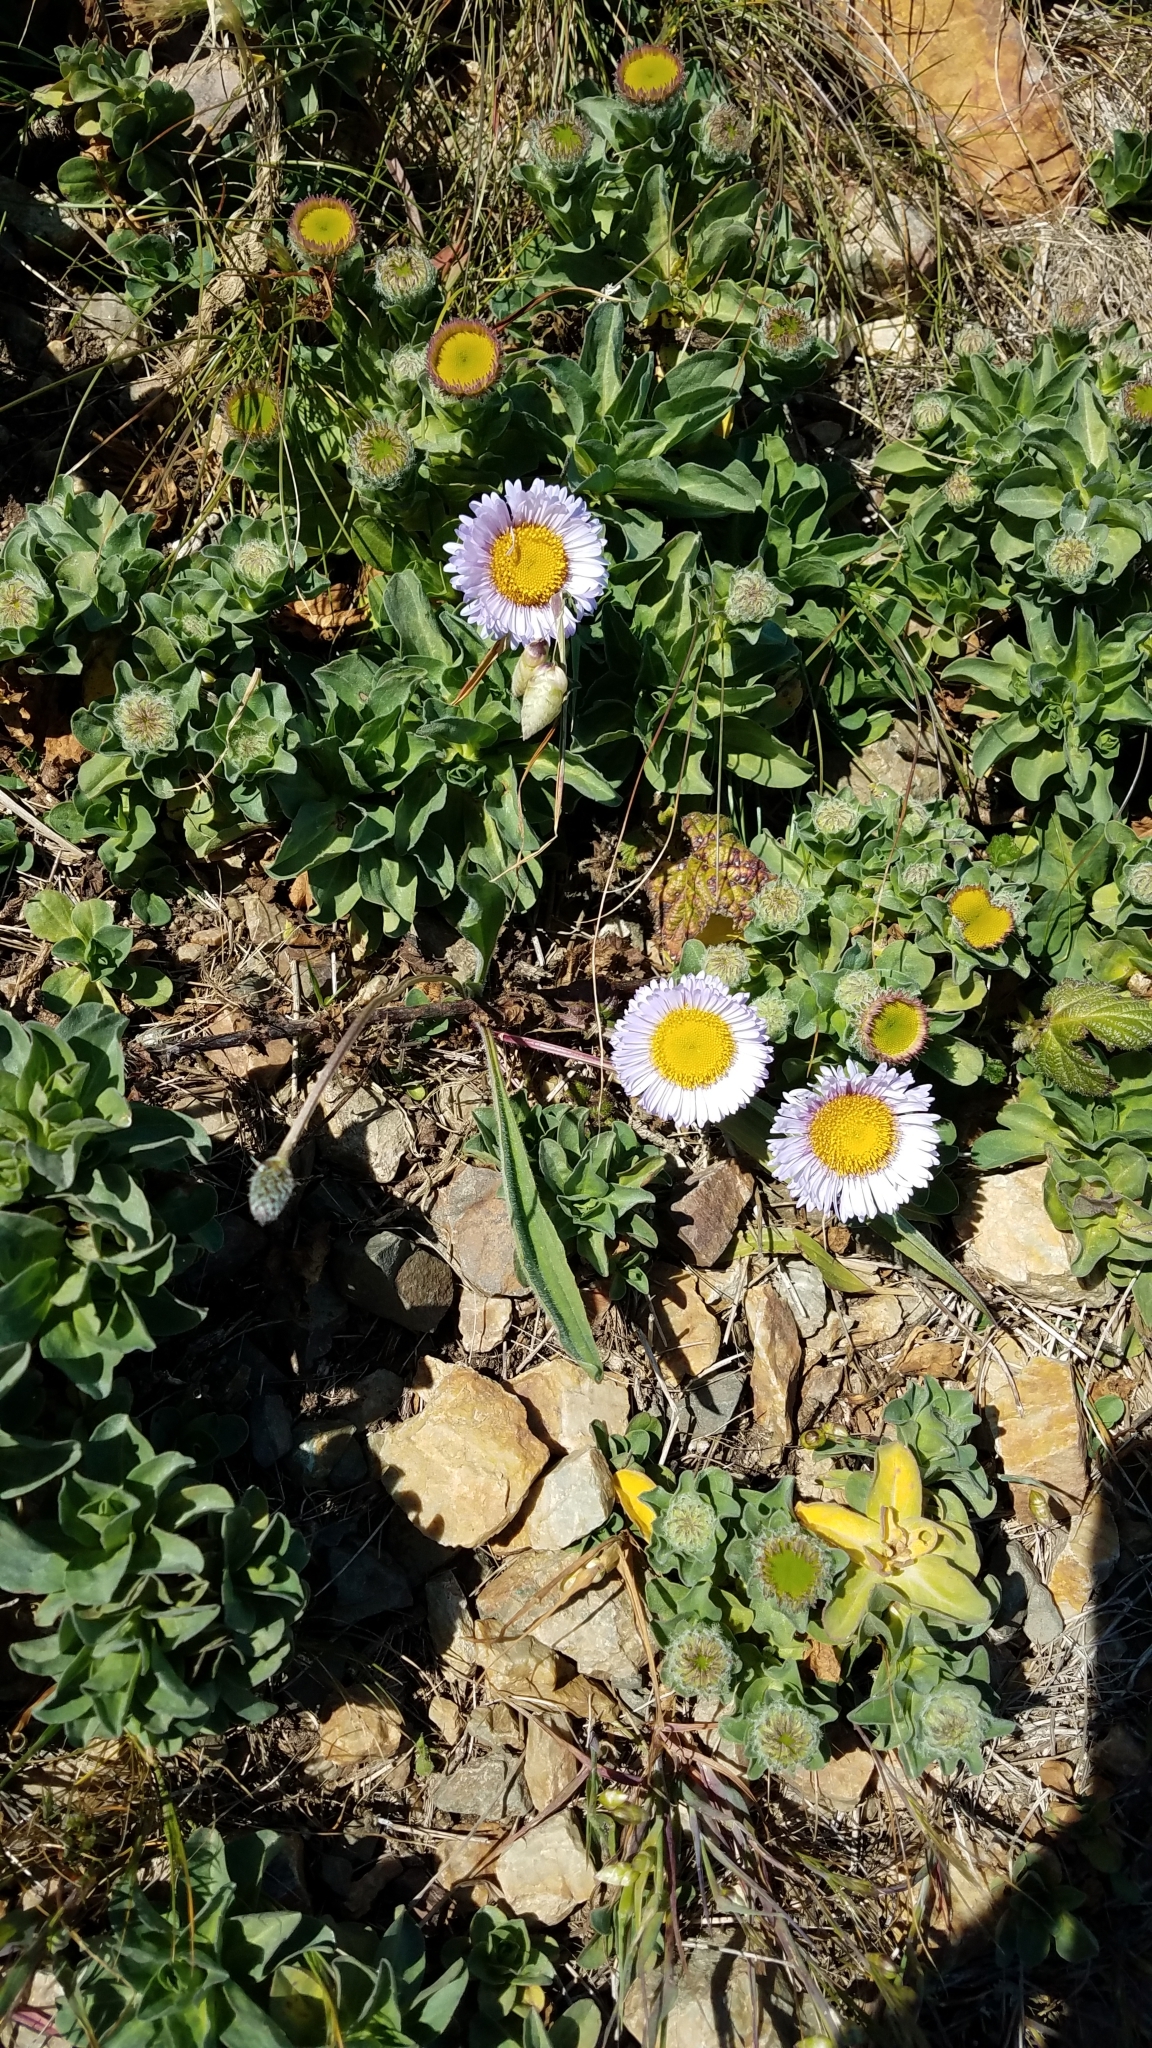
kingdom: Plantae
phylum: Tracheophyta
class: Magnoliopsida
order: Asterales
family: Asteraceae
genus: Erigeron
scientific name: Erigeron glaucus
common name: Seaside daisy
